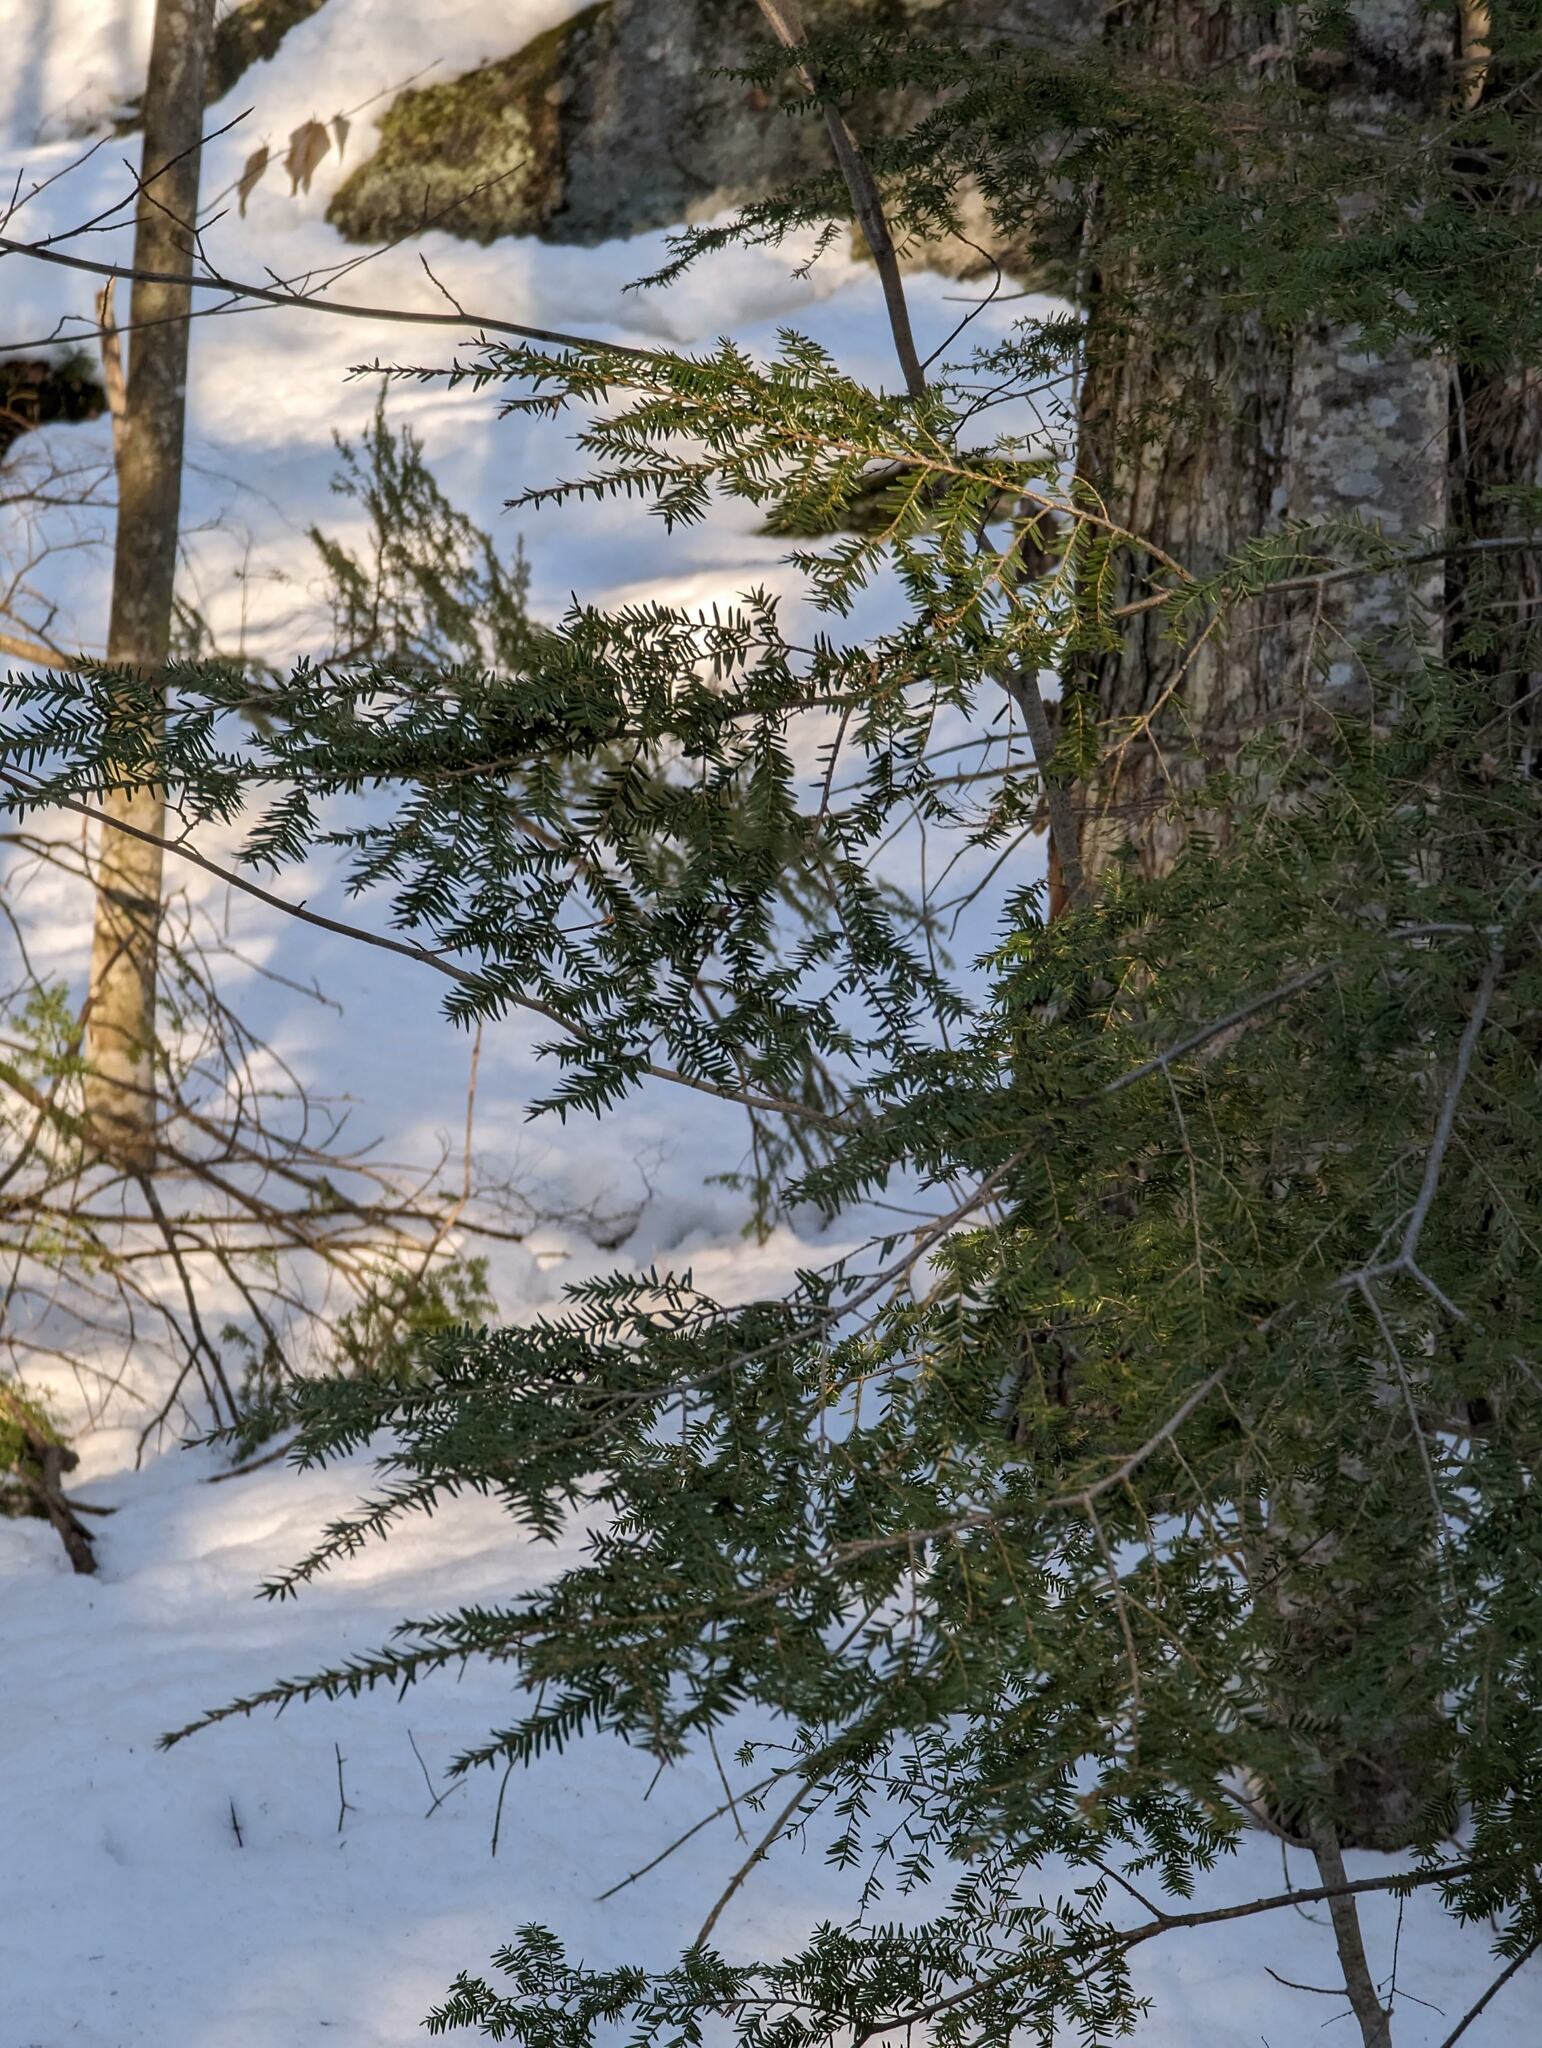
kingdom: Plantae
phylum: Tracheophyta
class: Pinopsida
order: Pinales
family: Pinaceae
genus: Tsuga
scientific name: Tsuga canadensis
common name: Eastern hemlock
